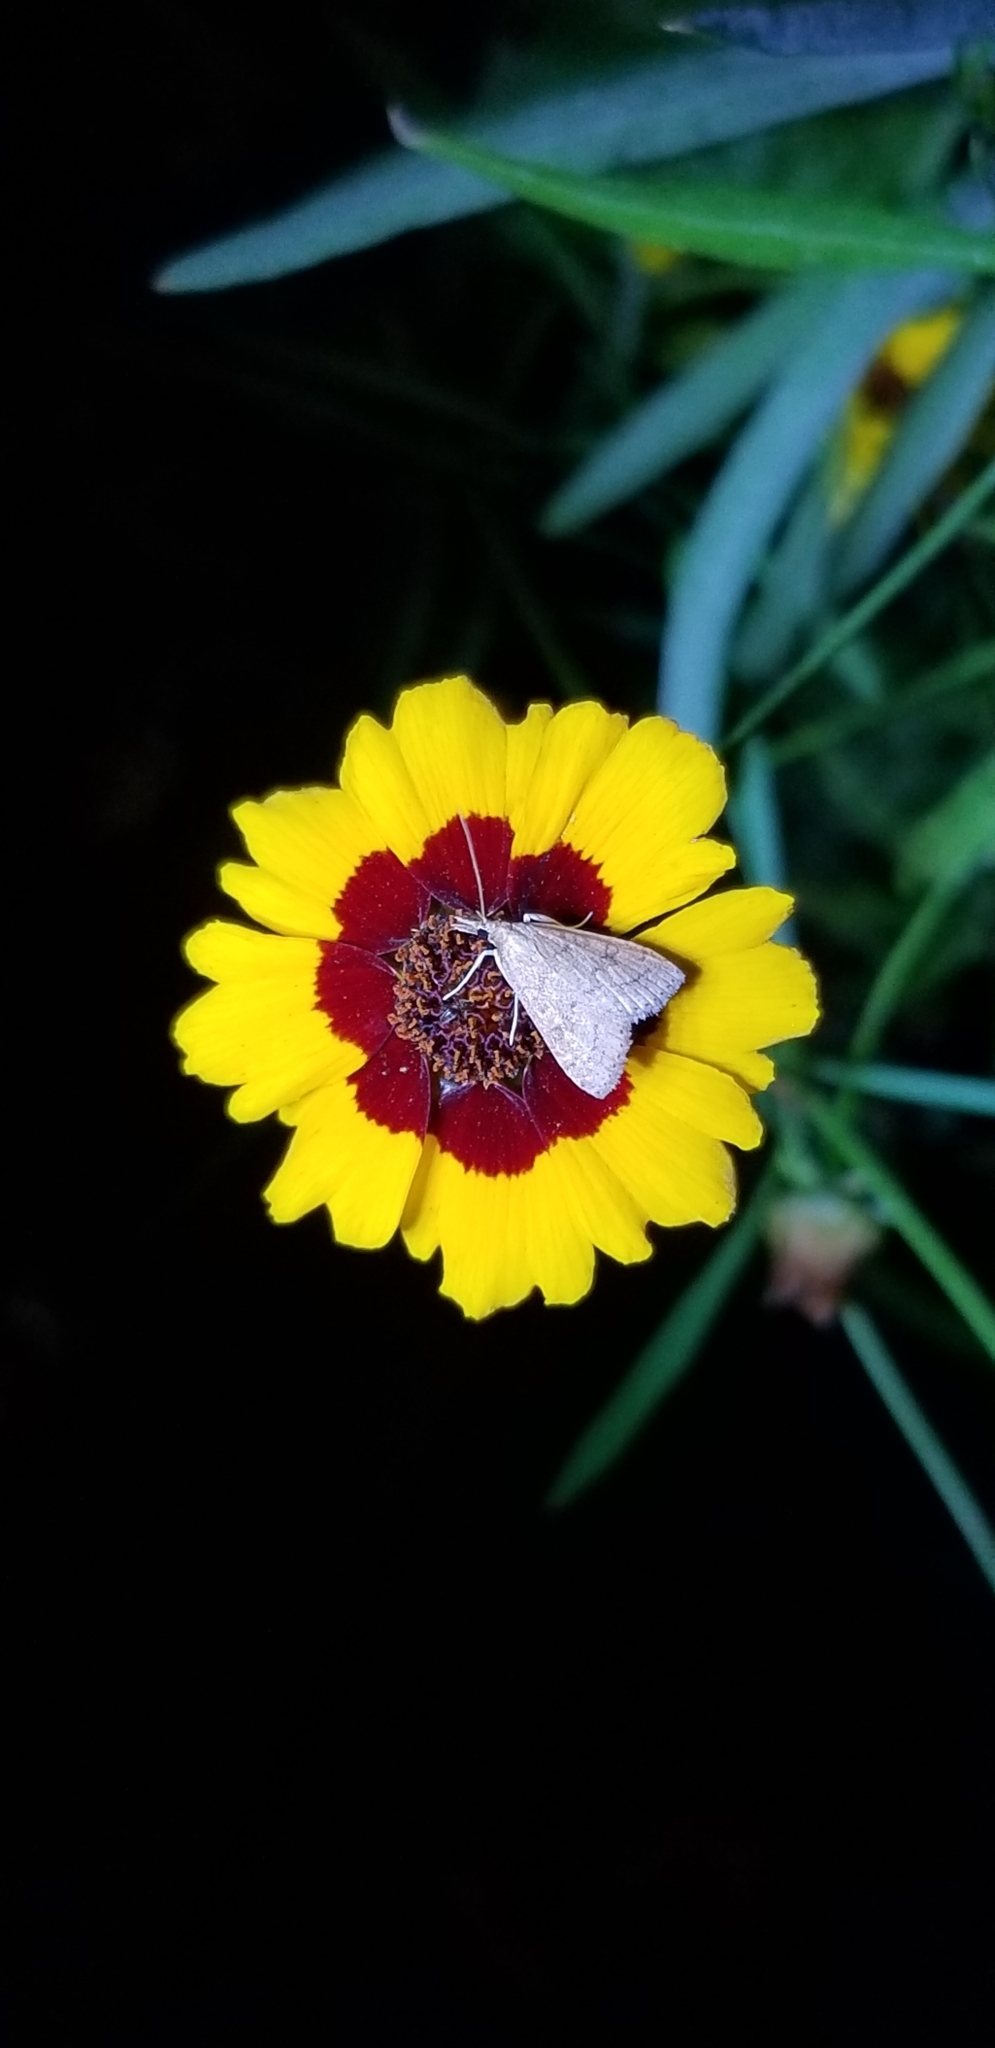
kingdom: Animalia
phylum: Arthropoda
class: Insecta
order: Lepidoptera
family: Crambidae
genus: Udea
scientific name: Udea rubigalis
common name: Celery leaftier moth
